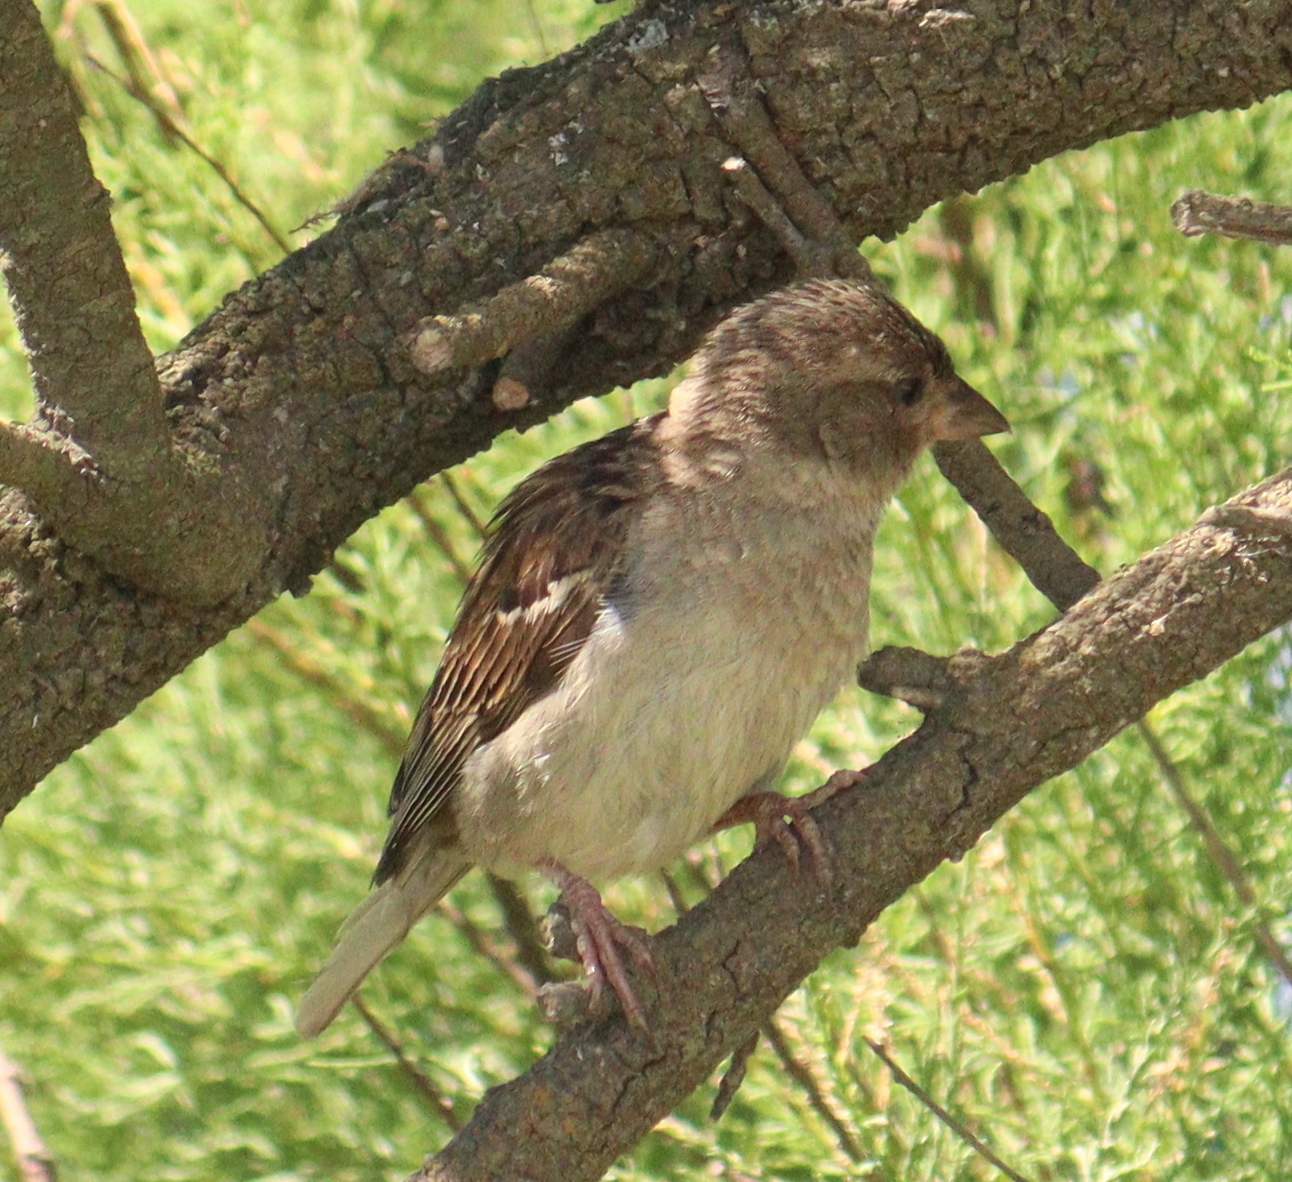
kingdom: Animalia
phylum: Chordata
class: Aves
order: Passeriformes
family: Passeridae
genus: Passer
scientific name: Passer domesticus
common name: House sparrow
